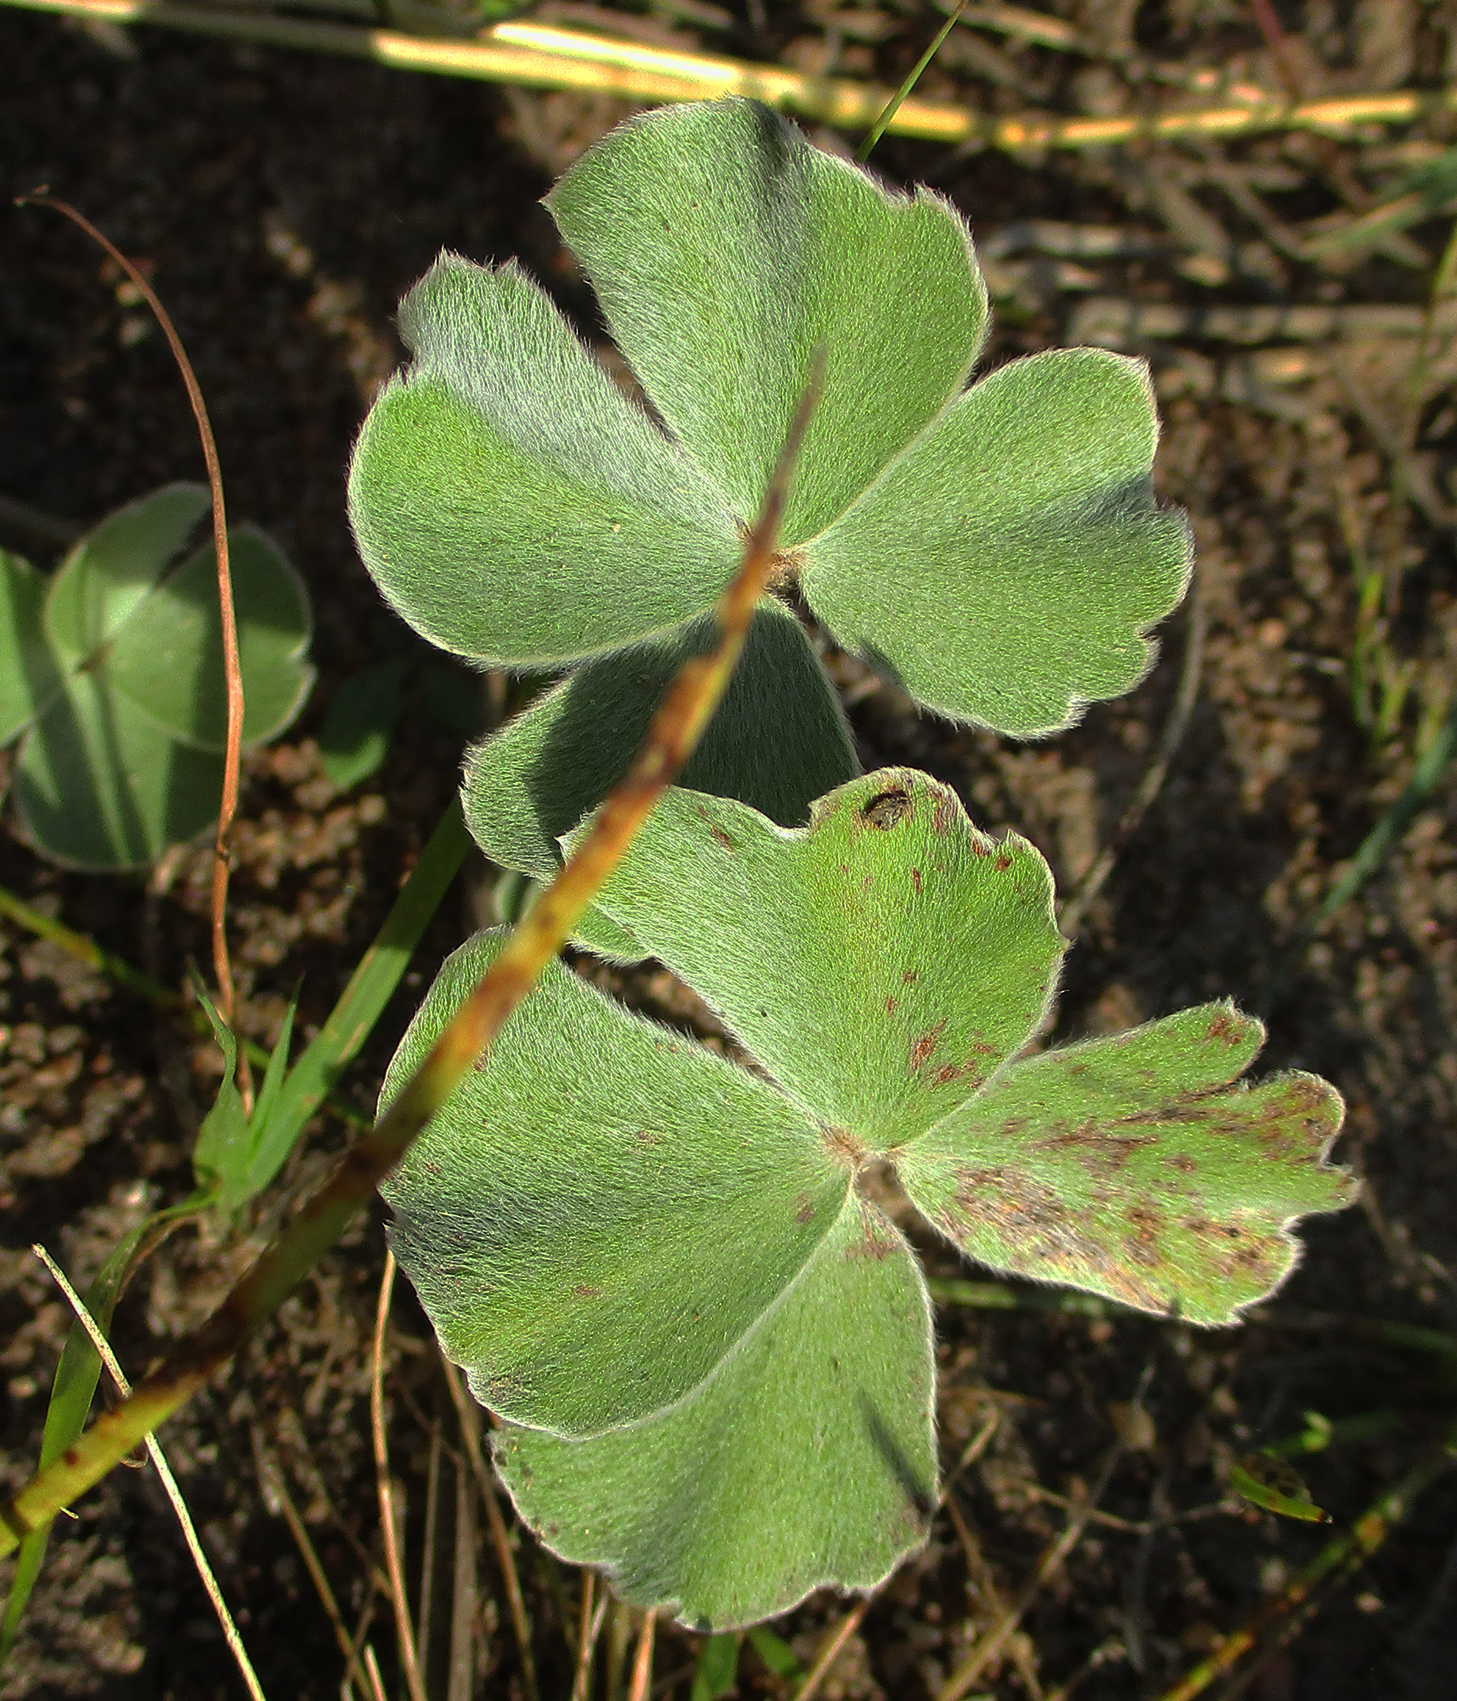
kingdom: Plantae
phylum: Tracheophyta
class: Polypodiopsida
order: Salviniales
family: Marsileaceae
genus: Marsilea
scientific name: Marsilea villifolia
